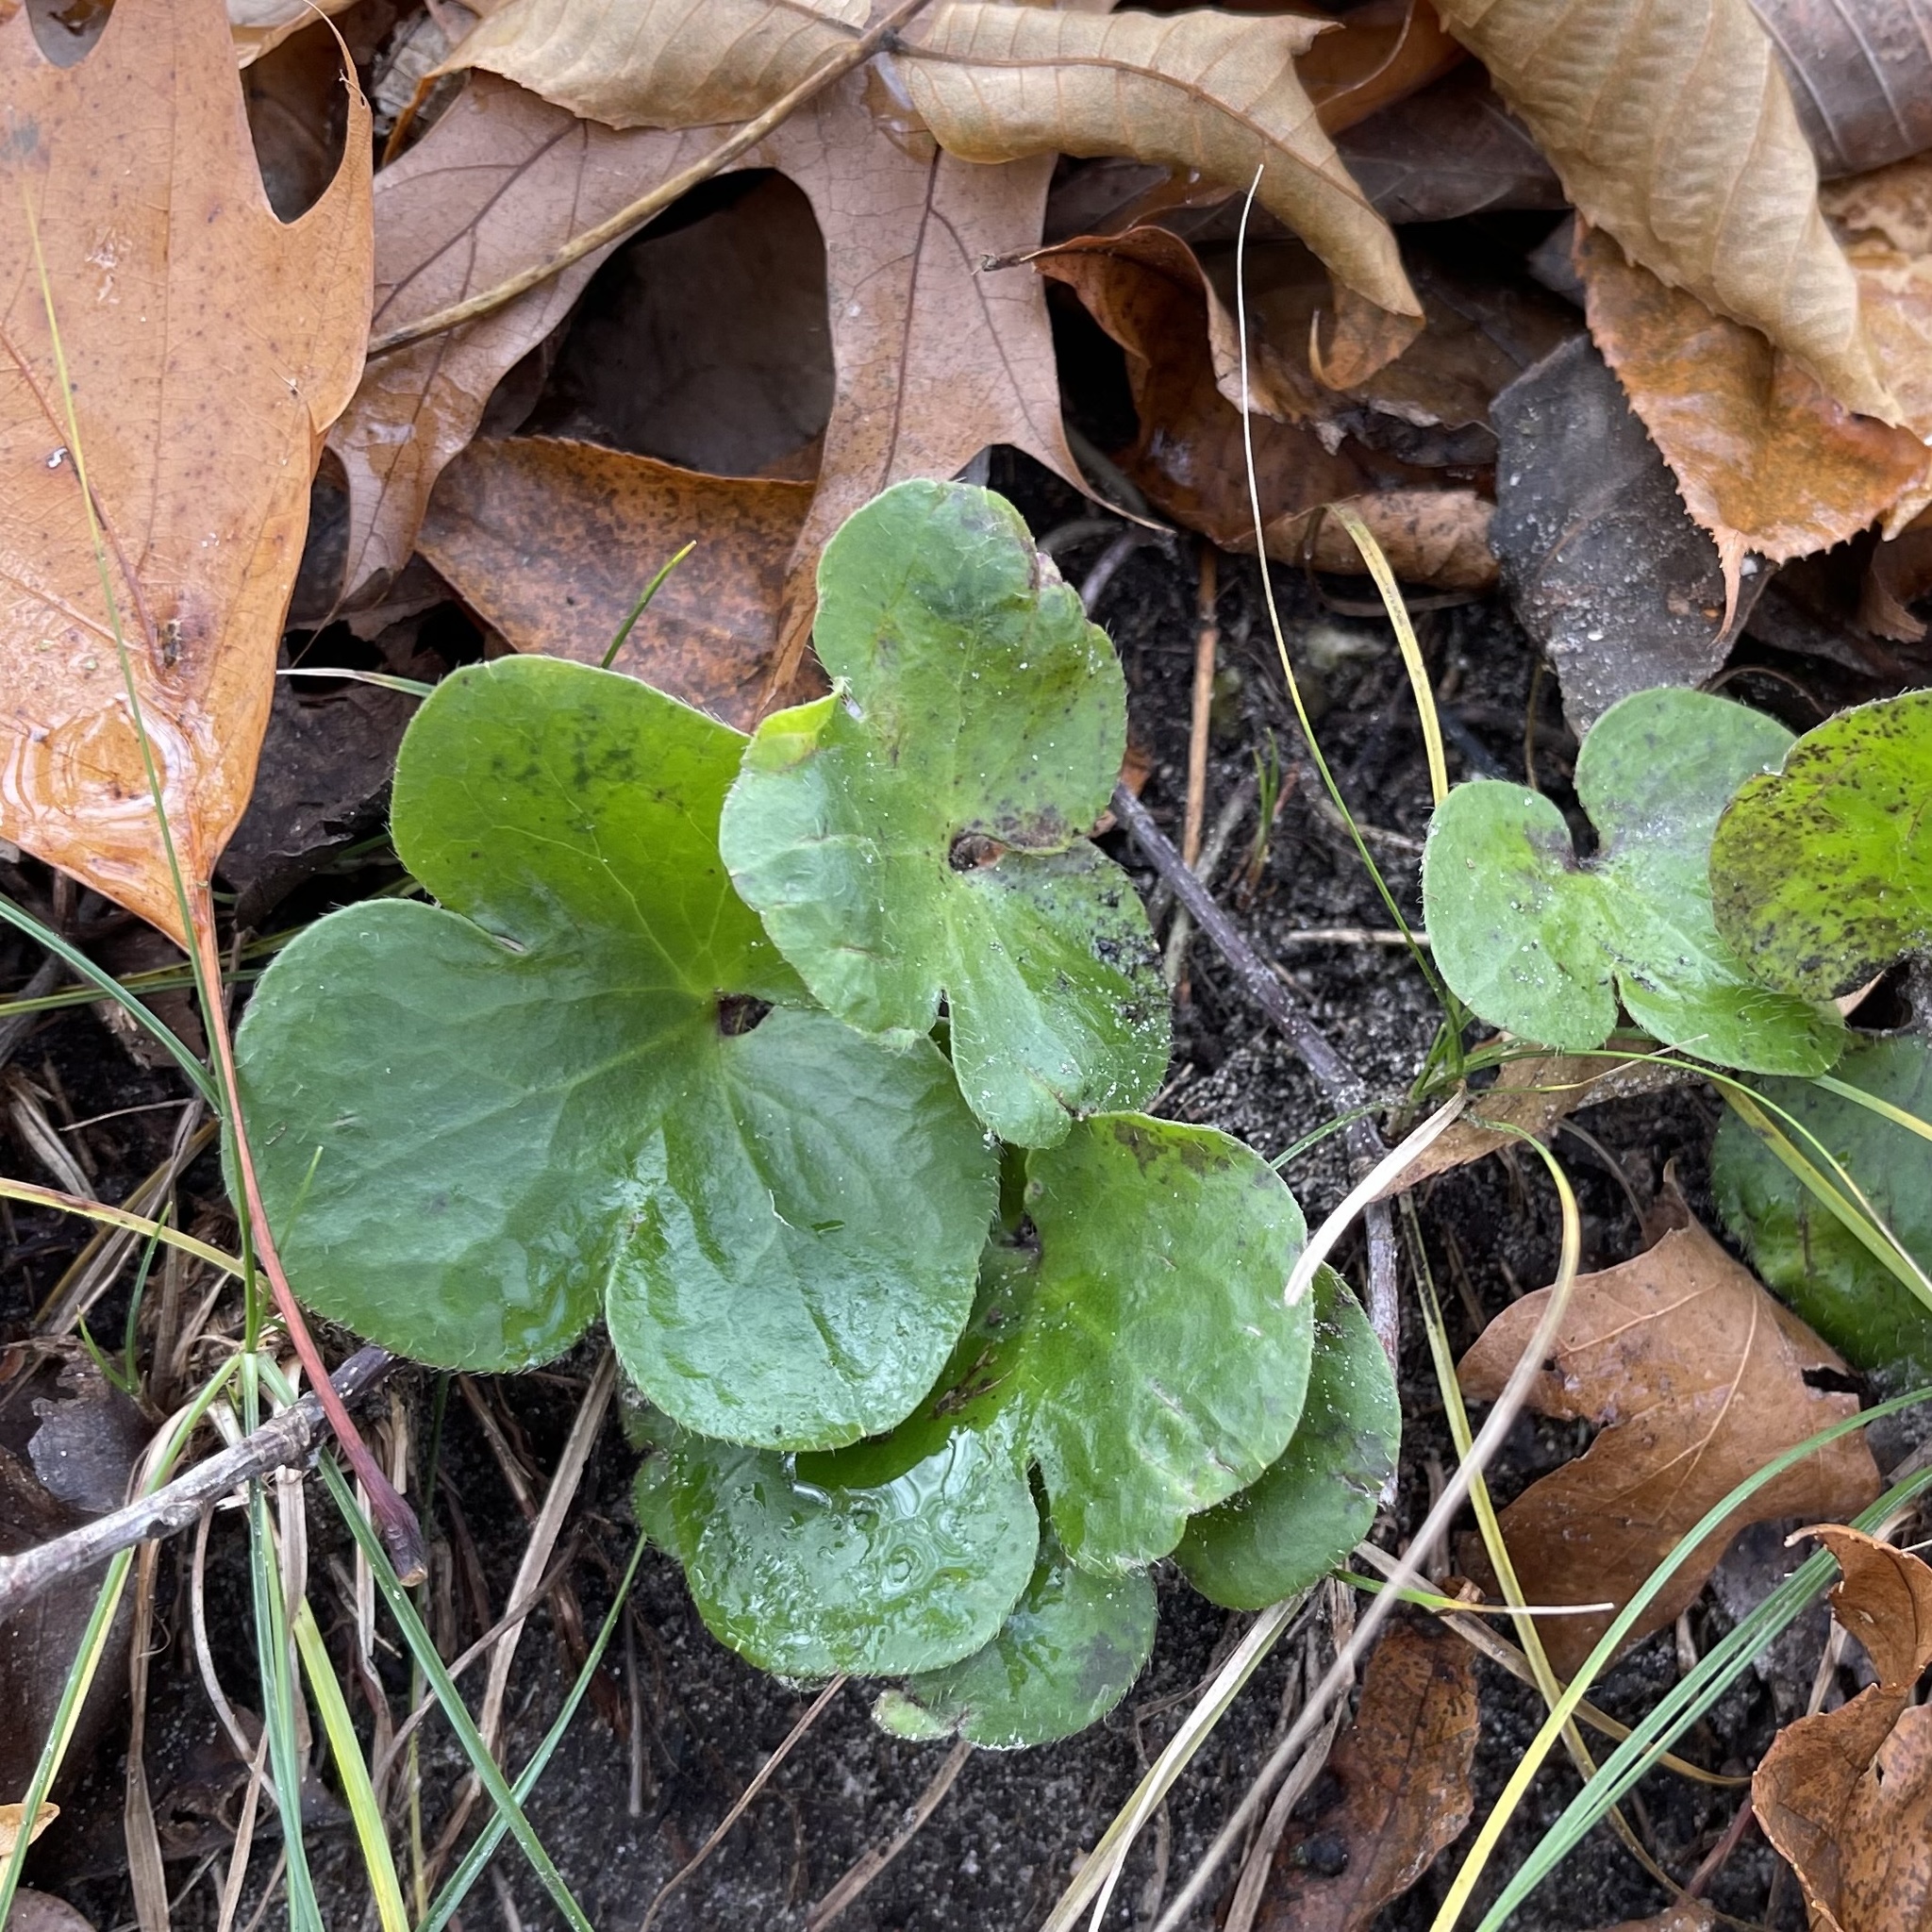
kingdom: Plantae
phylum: Tracheophyta
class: Magnoliopsida
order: Ranunculales
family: Ranunculaceae
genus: Hepatica
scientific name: Hepatica americana
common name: American hepatica
